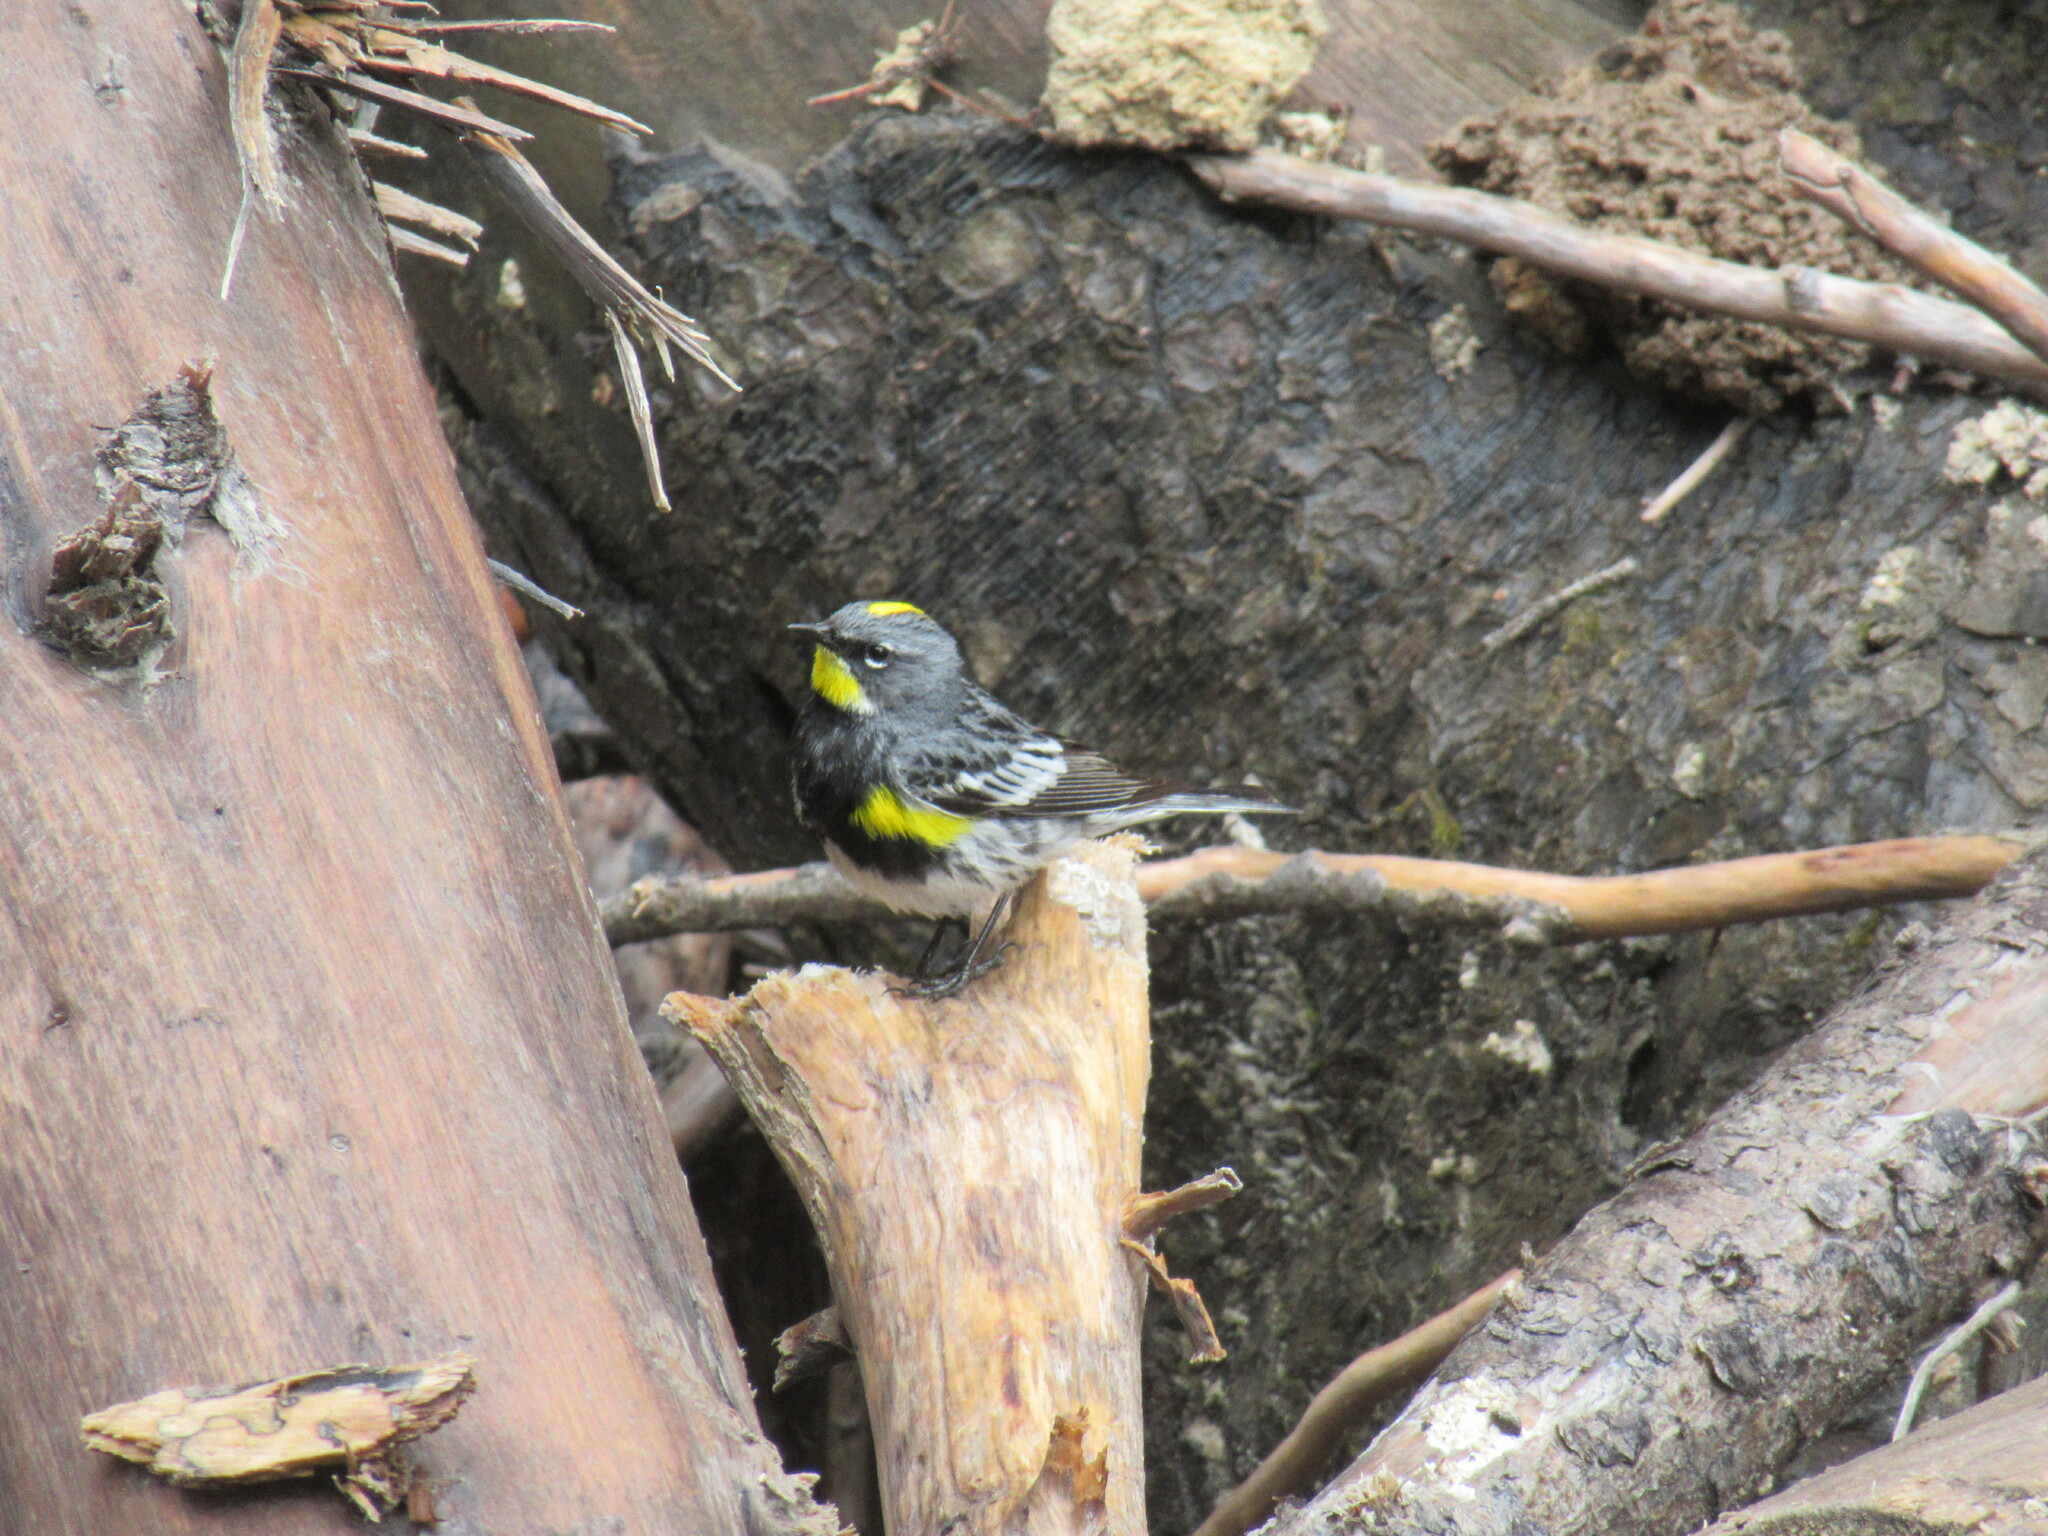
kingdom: Animalia
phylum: Chordata
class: Aves
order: Passeriformes
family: Parulidae
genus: Setophaga
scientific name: Setophaga coronata
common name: Myrtle warbler
